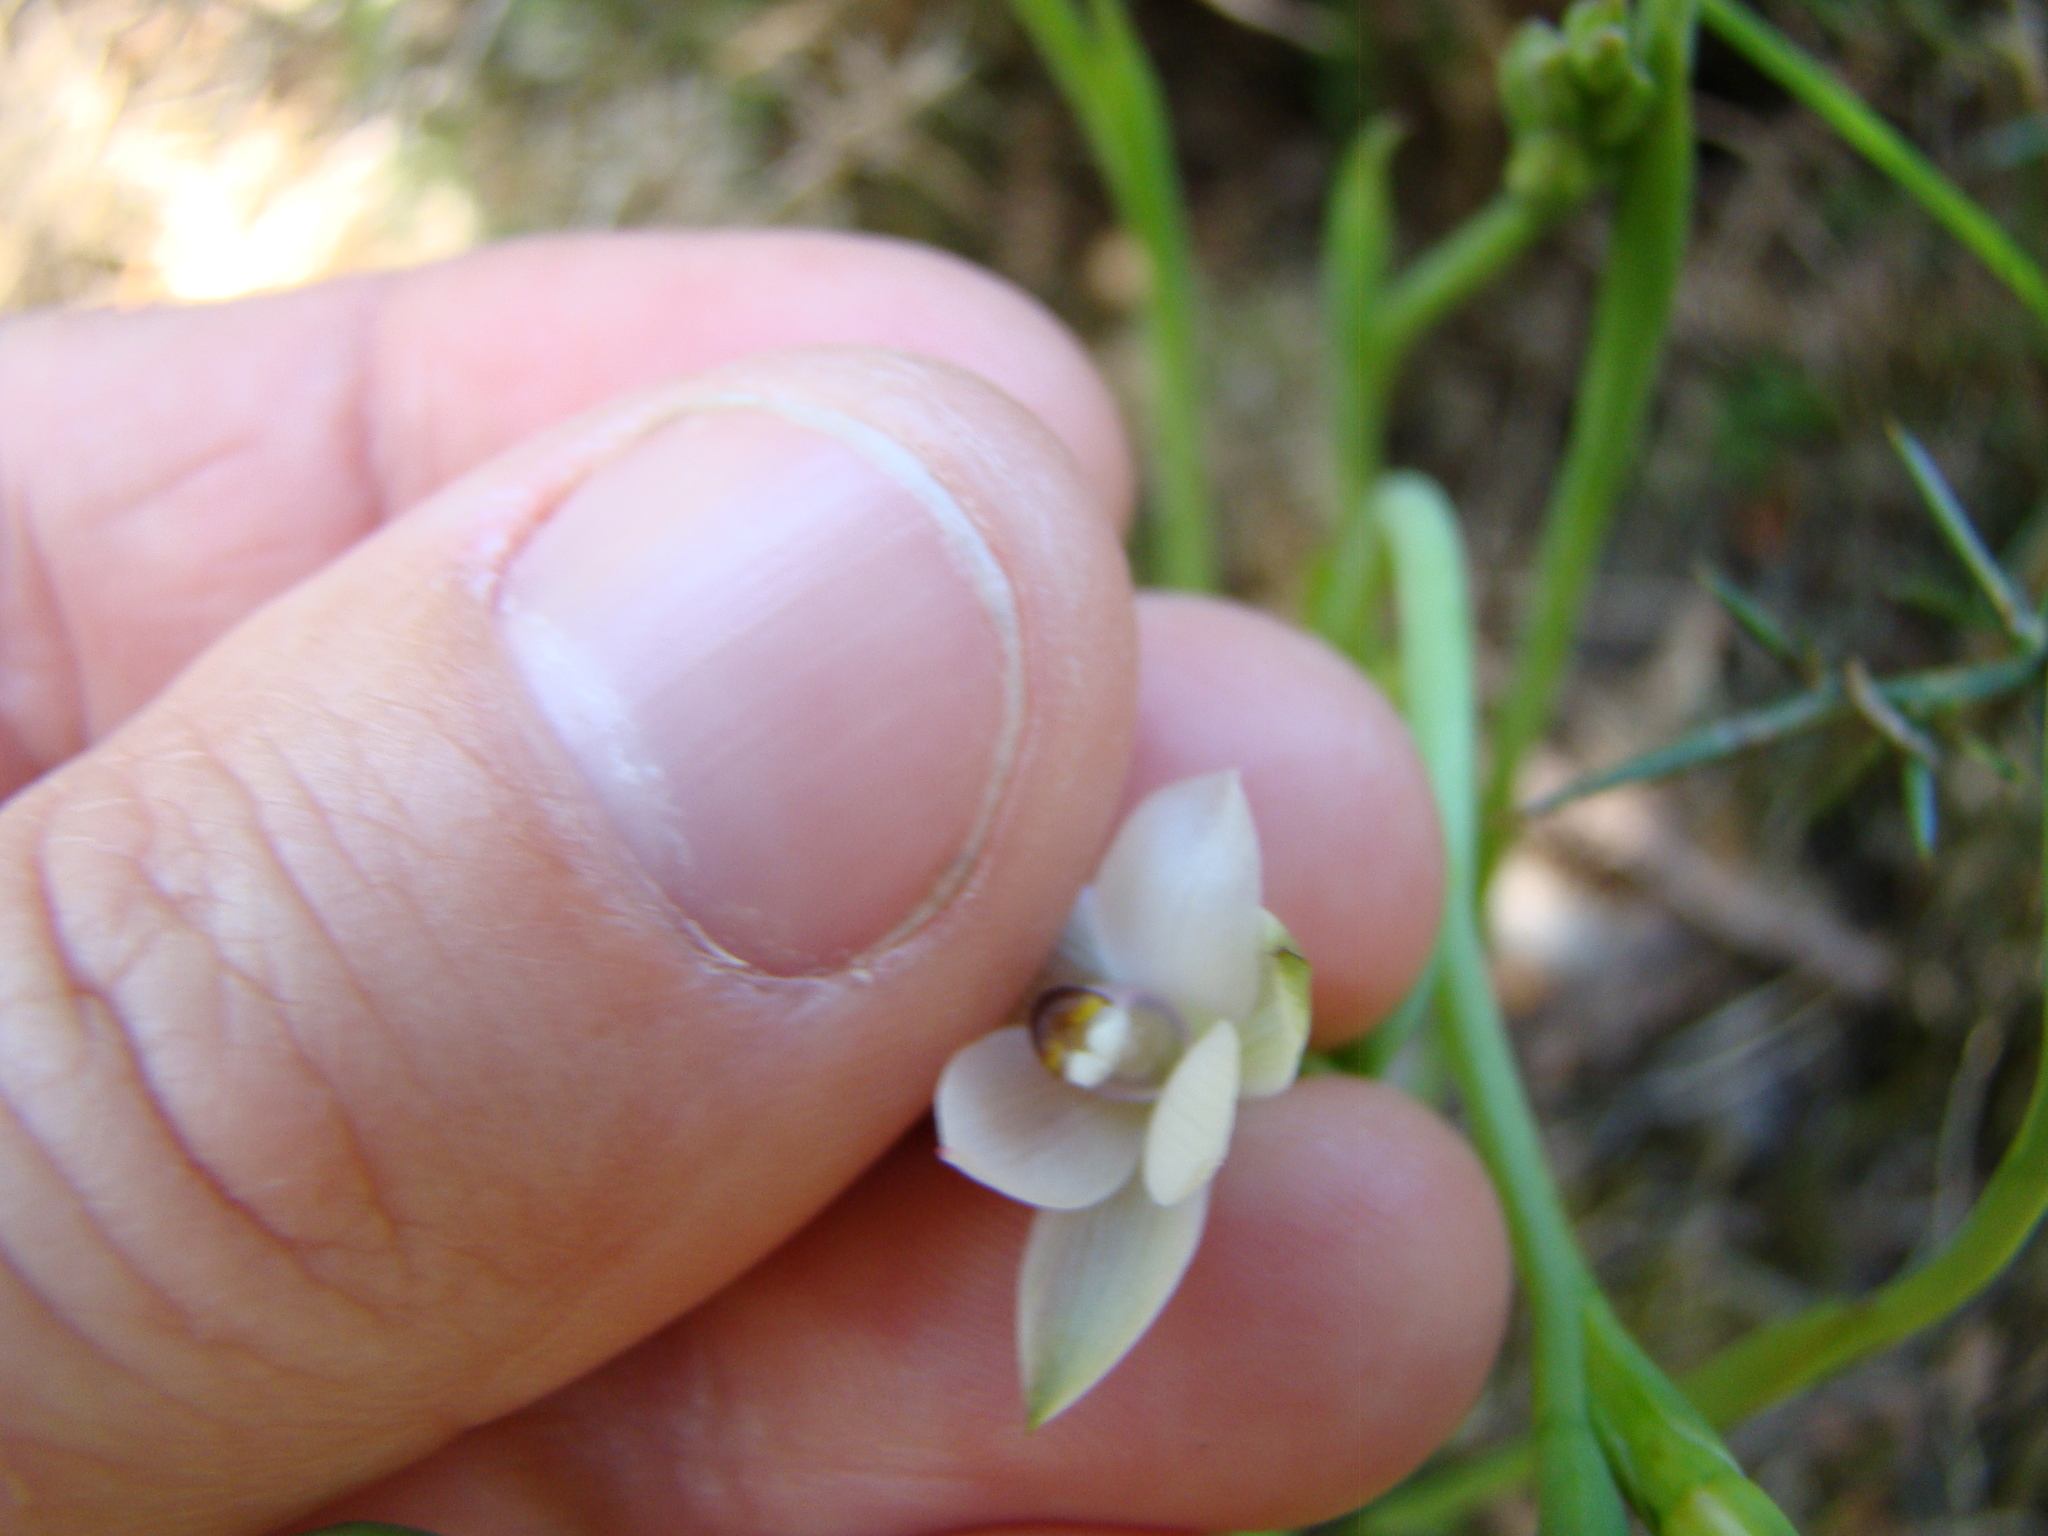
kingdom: Plantae
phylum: Tracheophyta
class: Liliopsida
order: Asparagales
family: Orchidaceae
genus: Thelymitra
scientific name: Thelymitra longifolia
